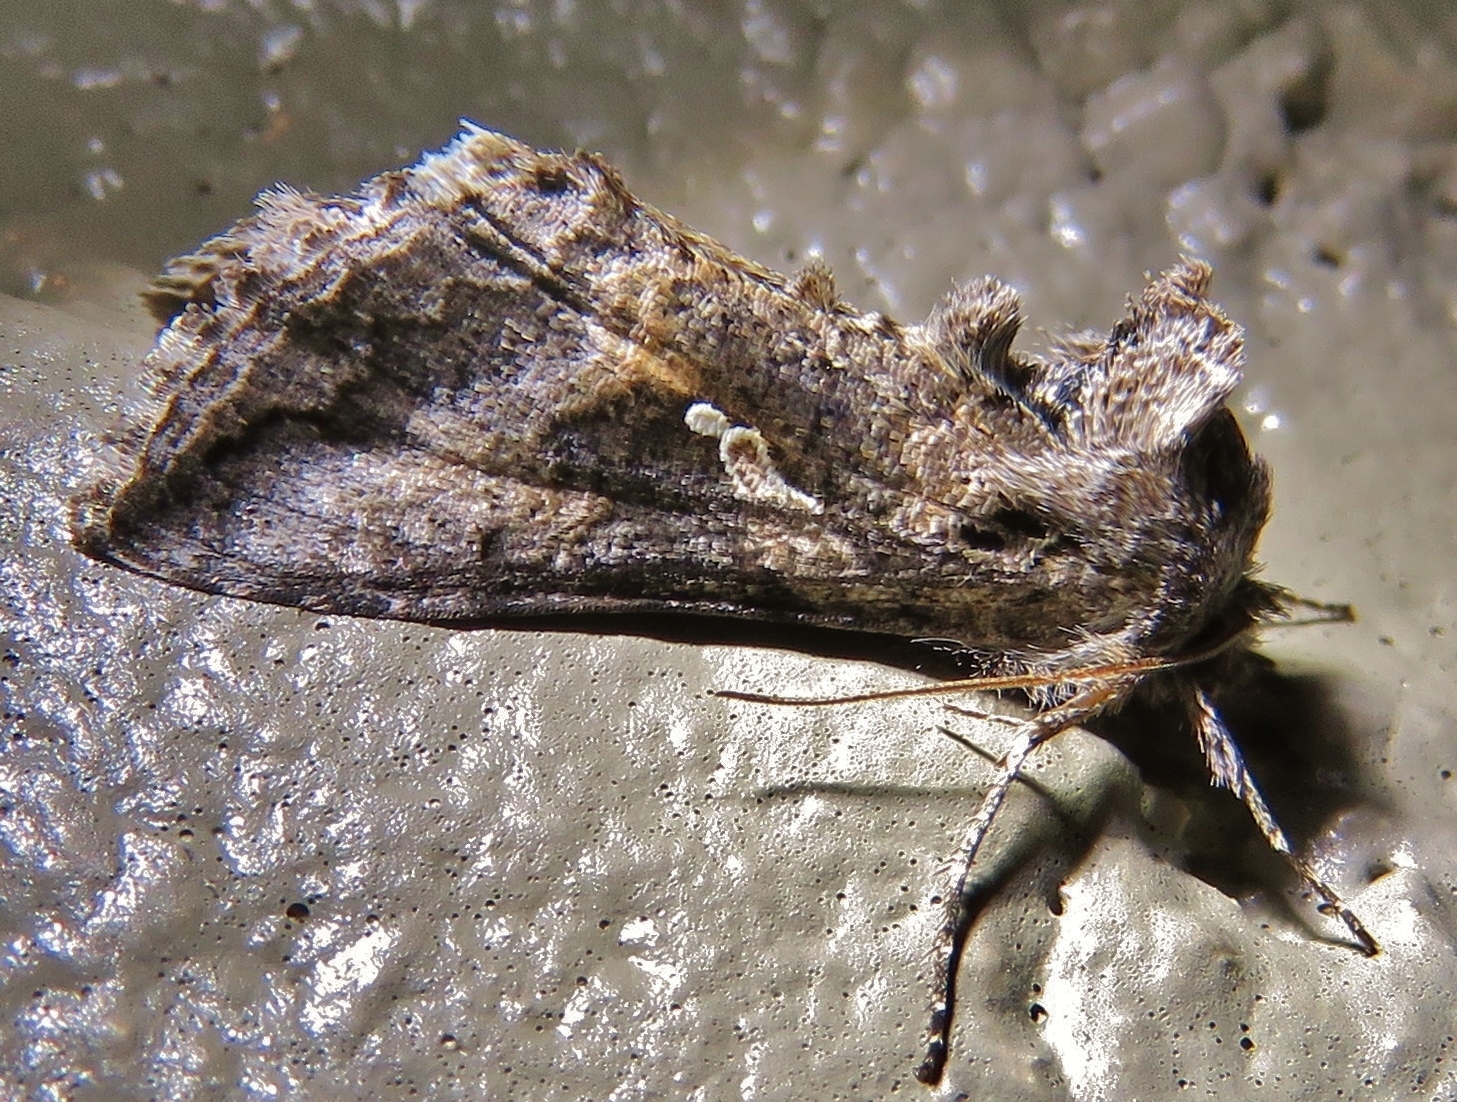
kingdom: Animalia
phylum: Arthropoda
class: Insecta
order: Lepidoptera
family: Noctuidae
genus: Rachiplusia
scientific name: Rachiplusia ou
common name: Gray looper moth
